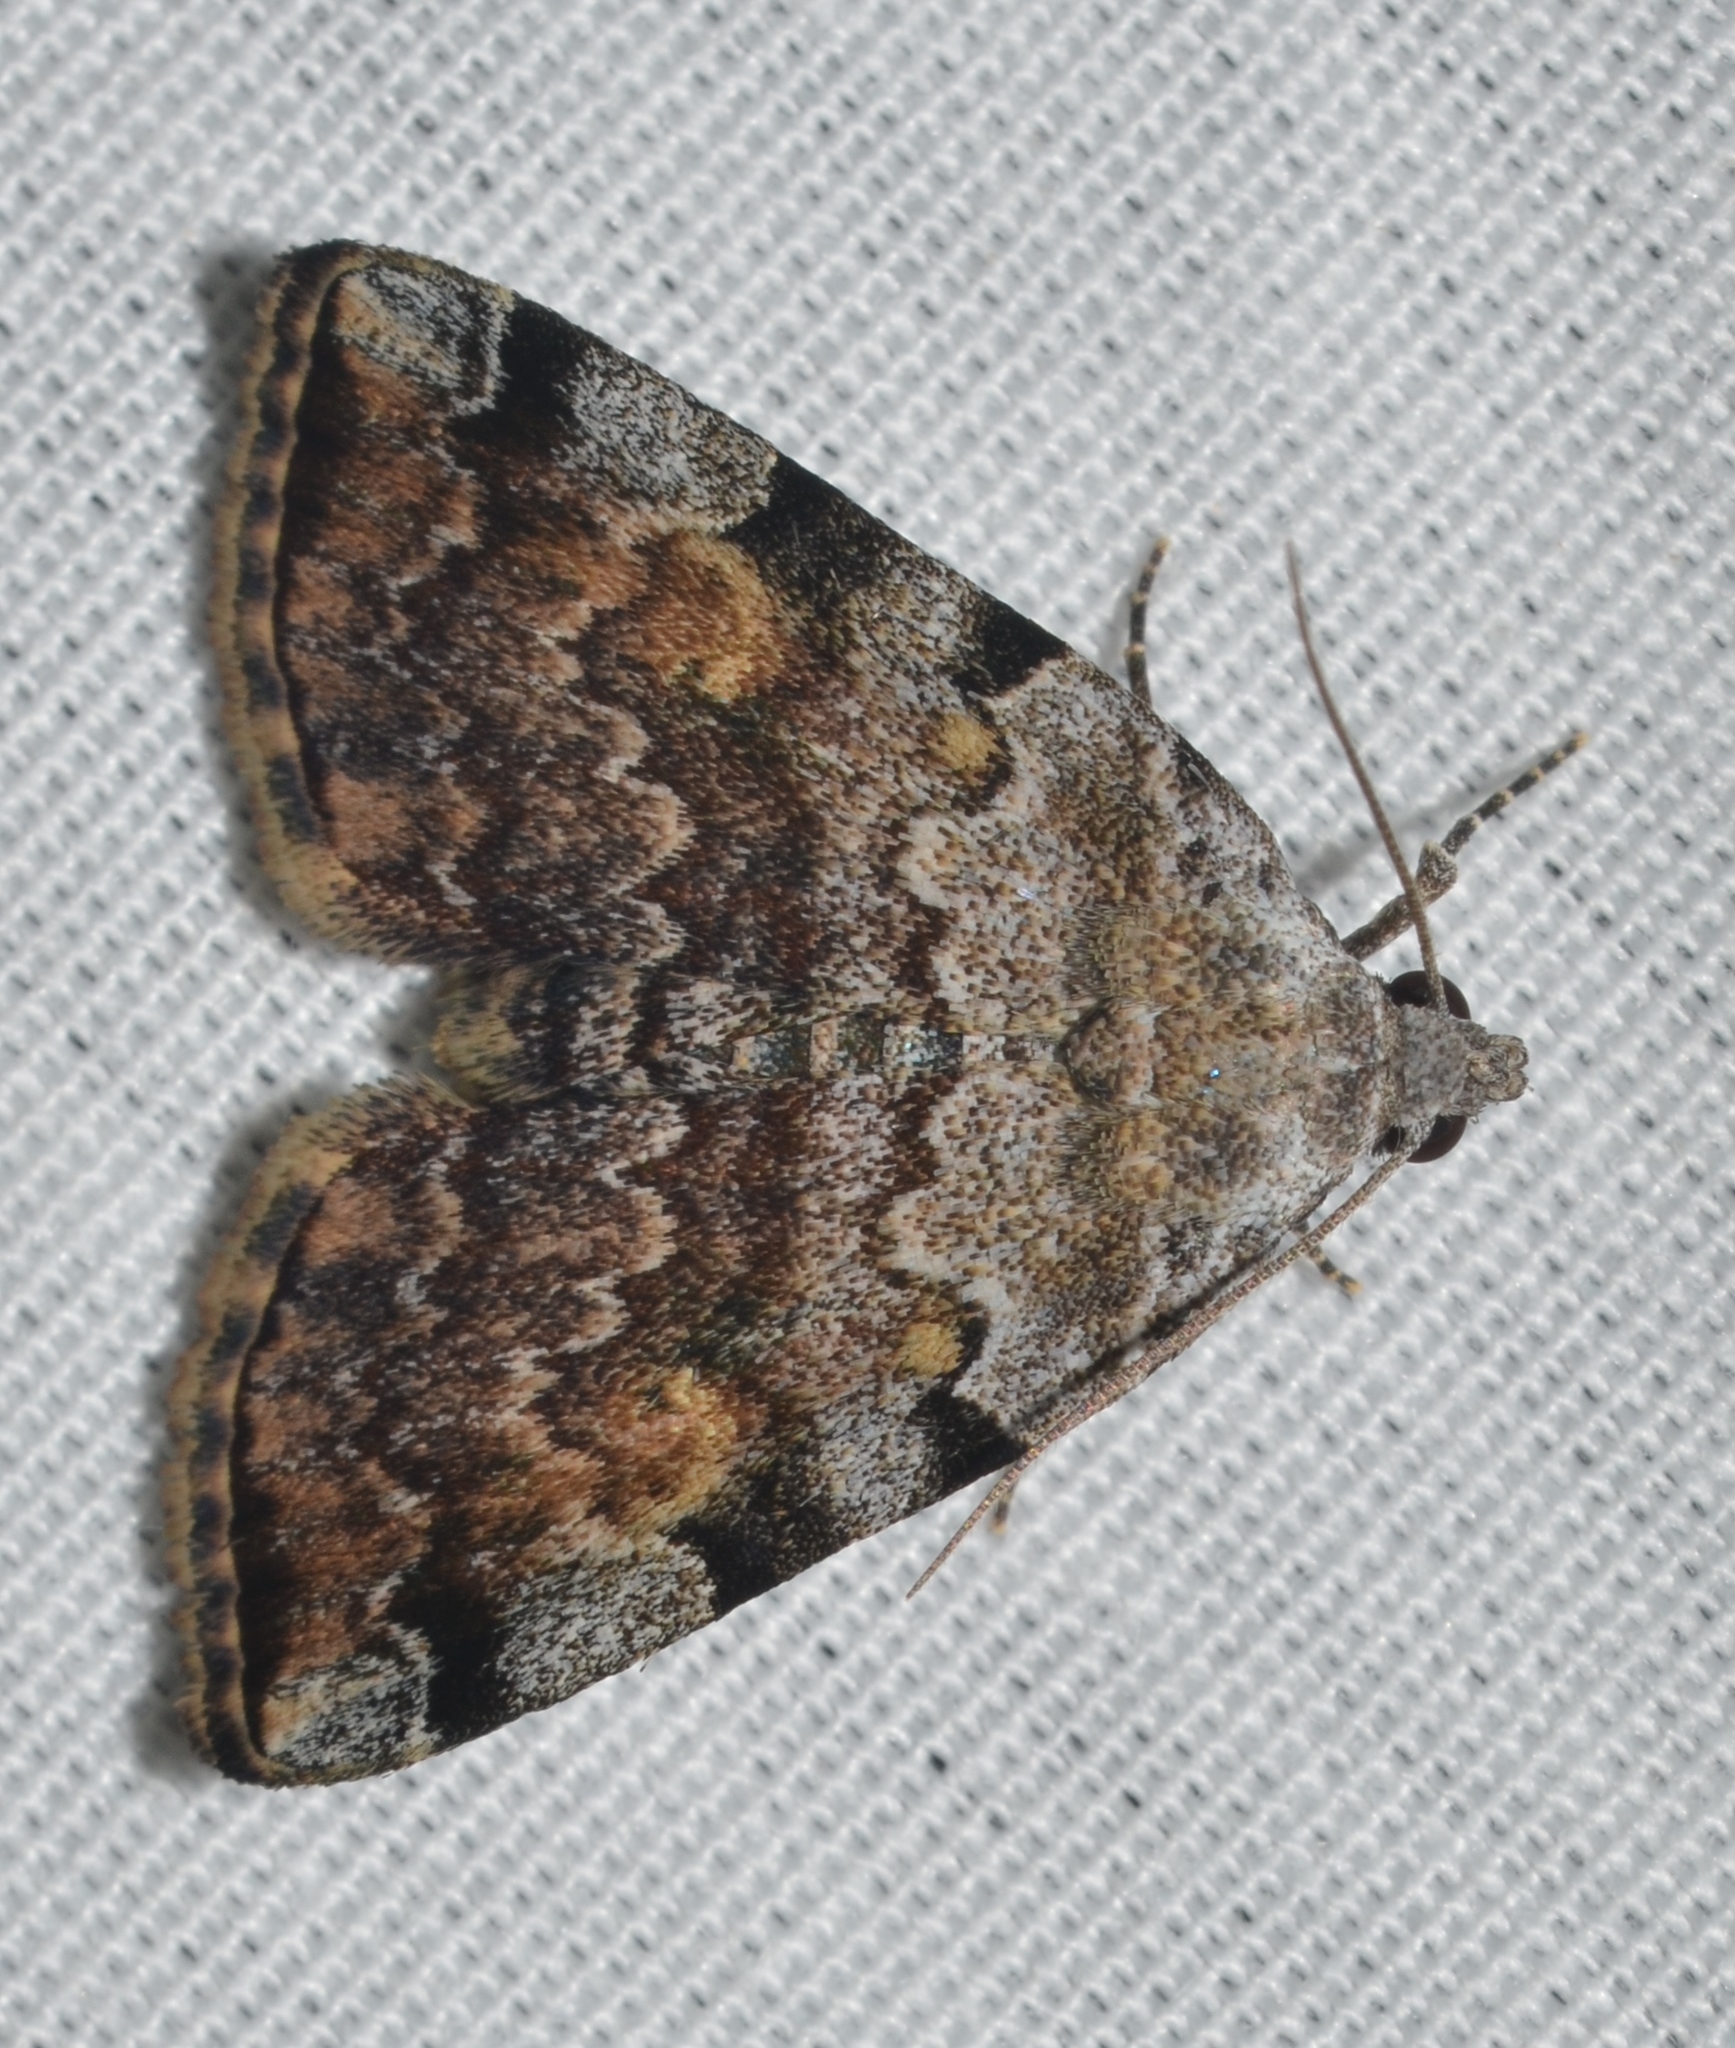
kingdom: Animalia
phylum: Arthropoda
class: Insecta
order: Lepidoptera
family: Erebidae
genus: Idia
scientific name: Idia americalis
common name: American idia moth
